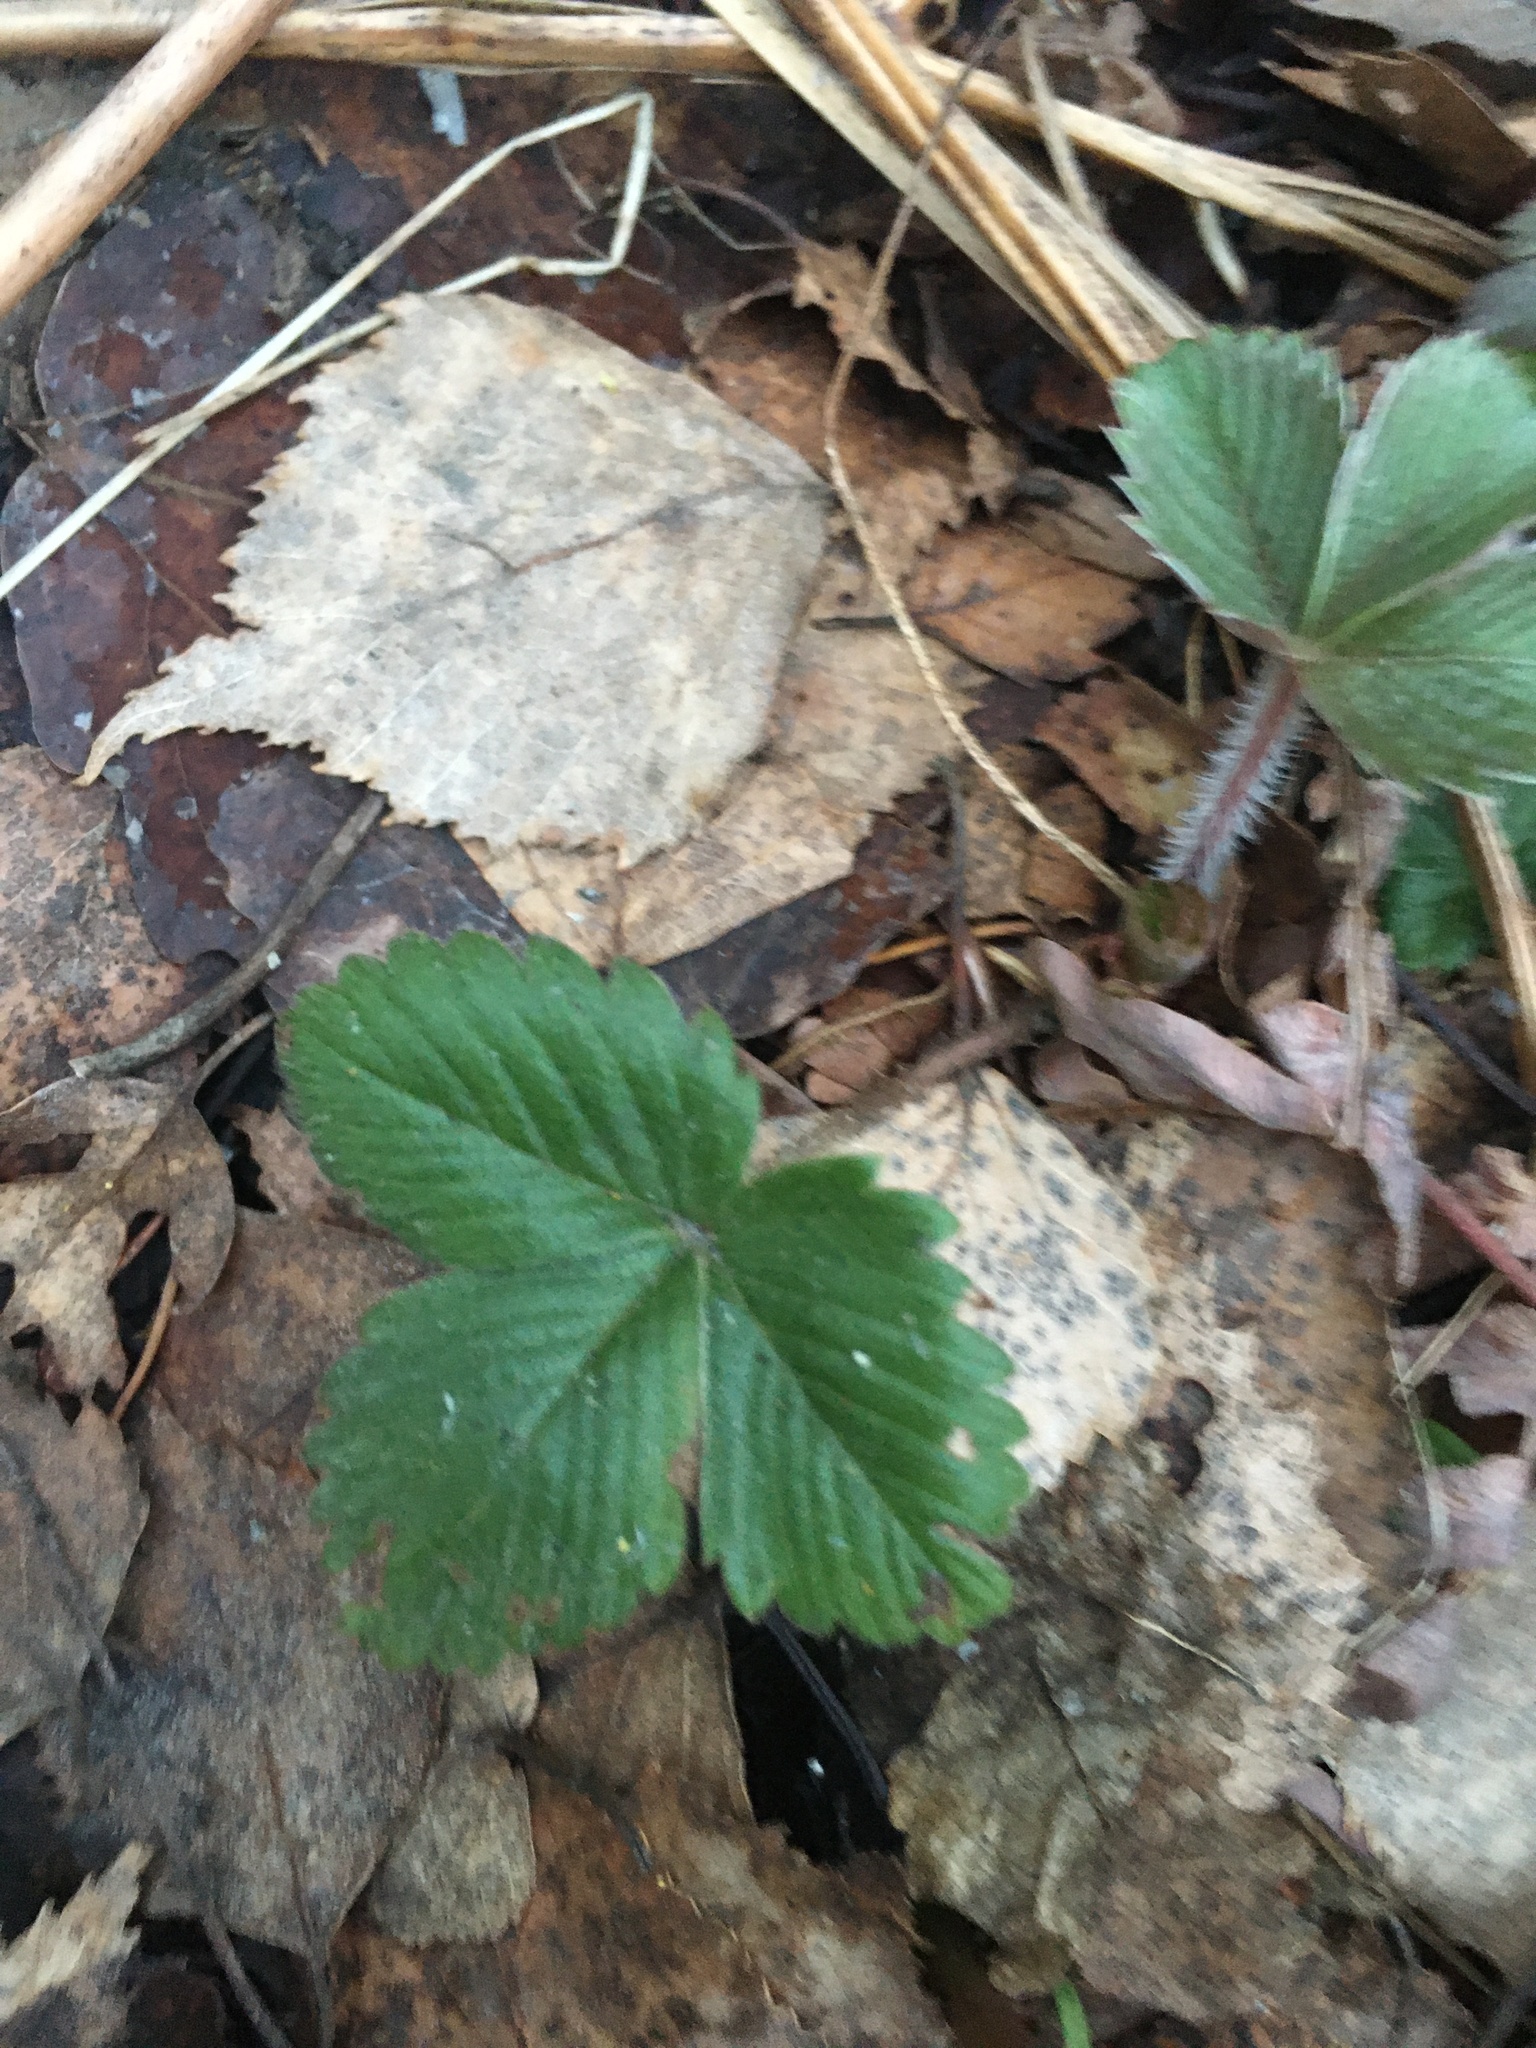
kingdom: Plantae
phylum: Tracheophyta
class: Magnoliopsida
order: Rosales
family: Rosaceae
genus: Fragaria
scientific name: Fragaria vesca
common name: Wild strawberry
